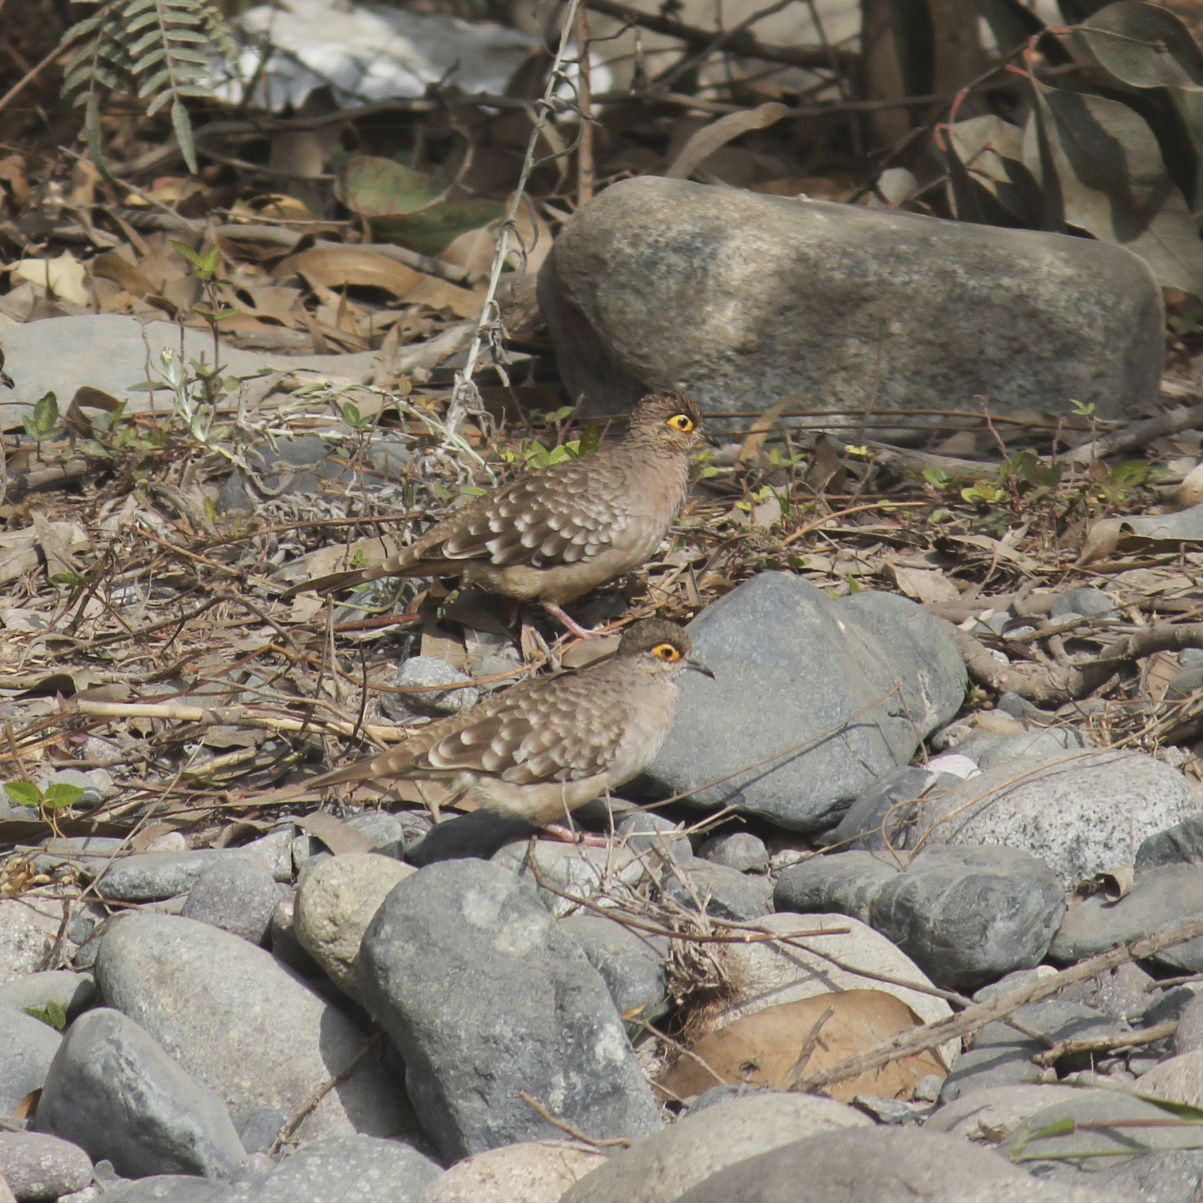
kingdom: Animalia
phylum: Chordata
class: Aves
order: Columbiformes
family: Columbidae
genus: Metriopelia
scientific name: Metriopelia ceciliae
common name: Bare-faced ground dove
